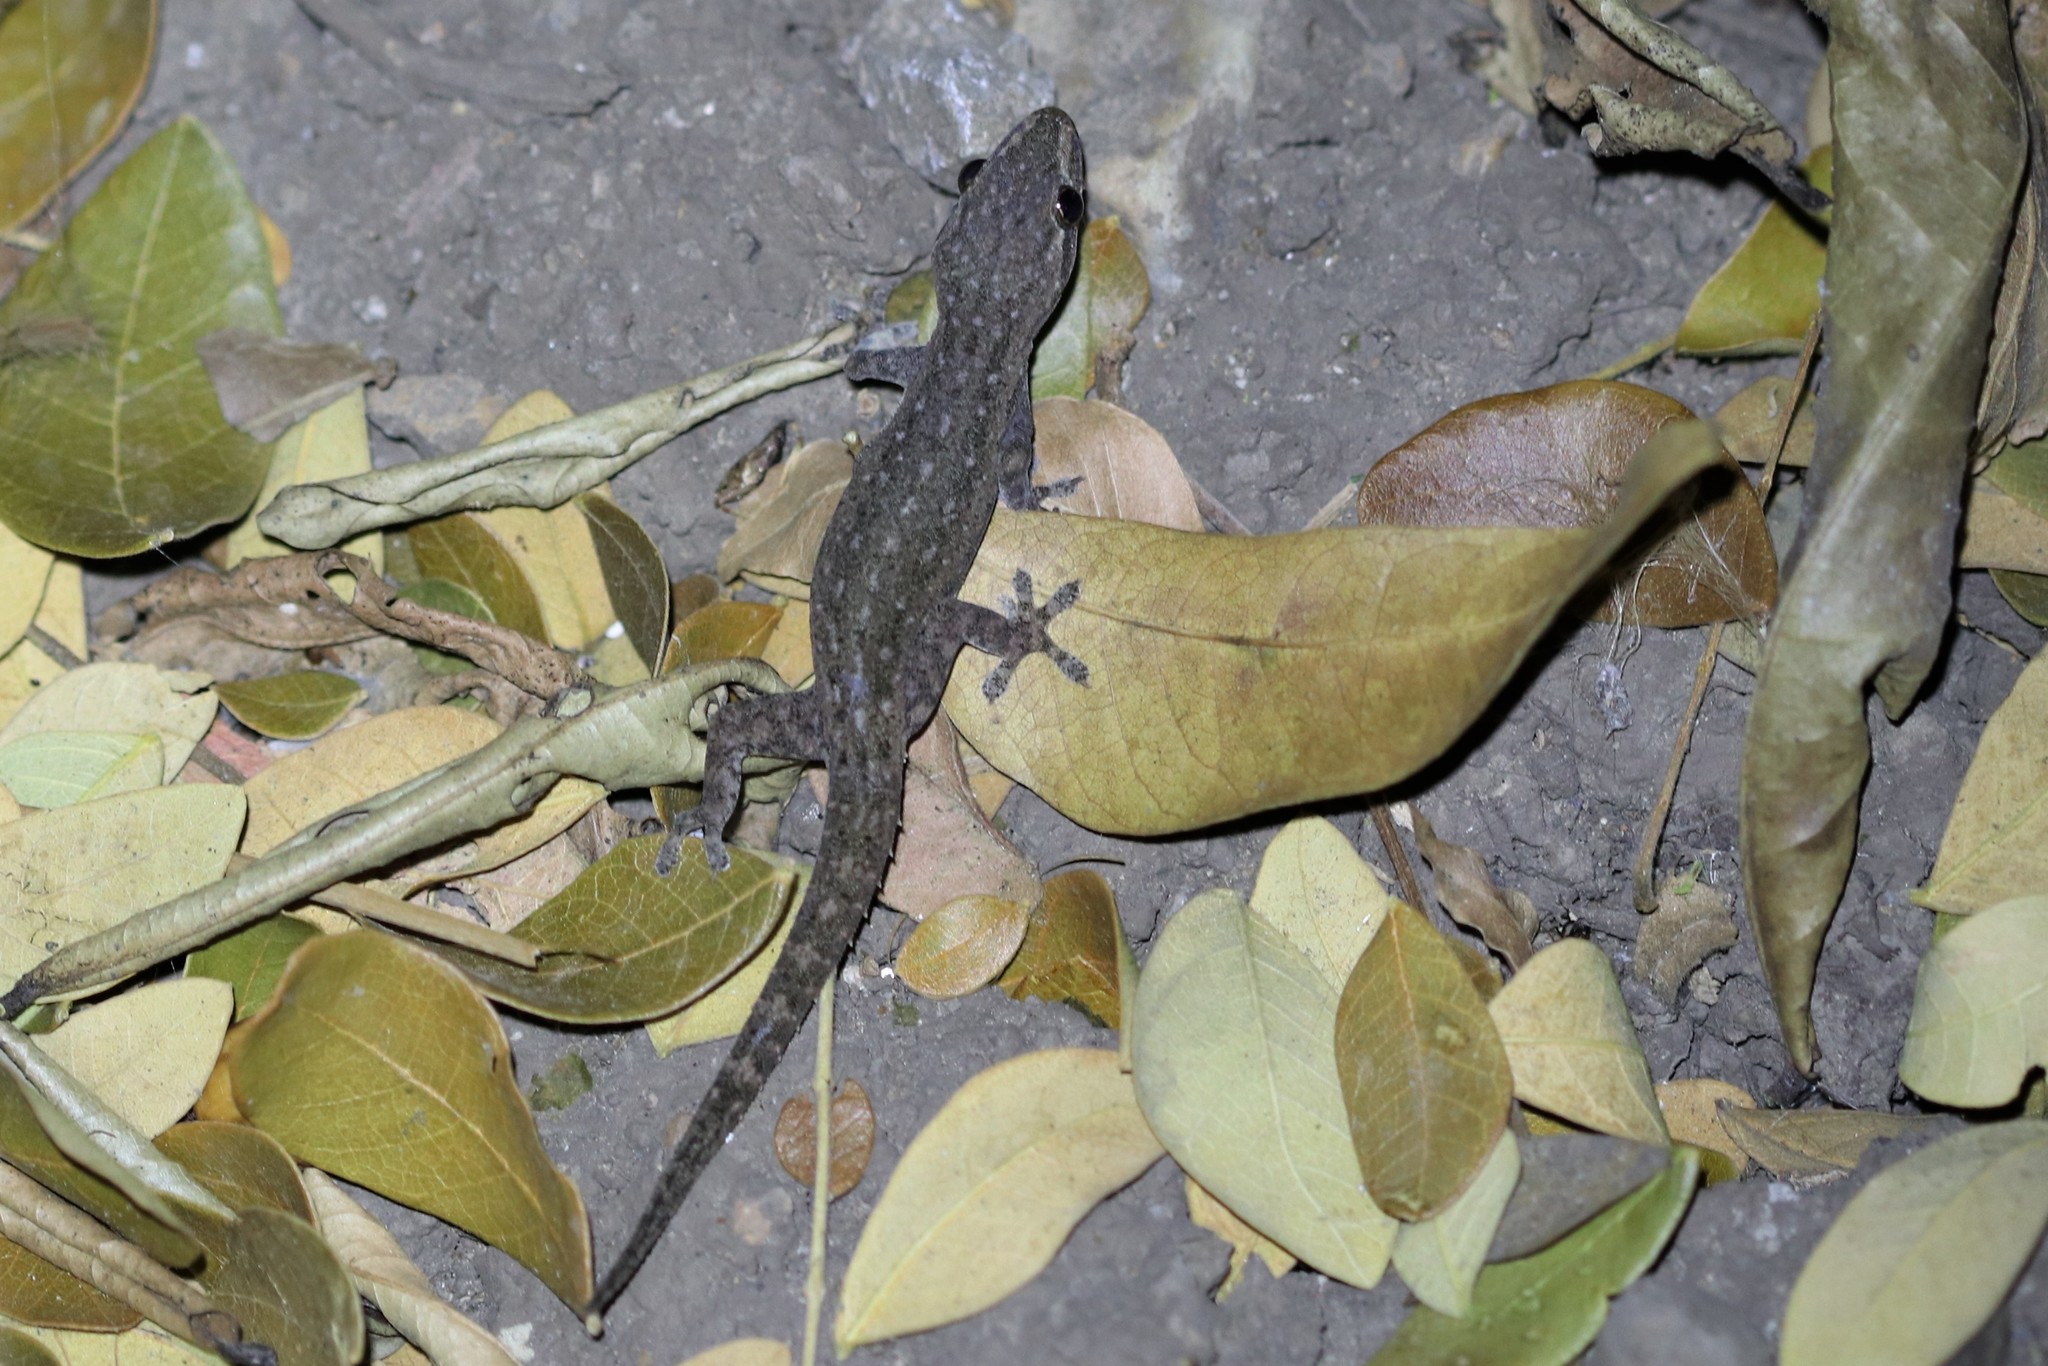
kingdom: Animalia
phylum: Chordata
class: Squamata
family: Gekkonidae
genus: Hemidactylus
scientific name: Hemidactylus frenatus
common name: Common house gecko
